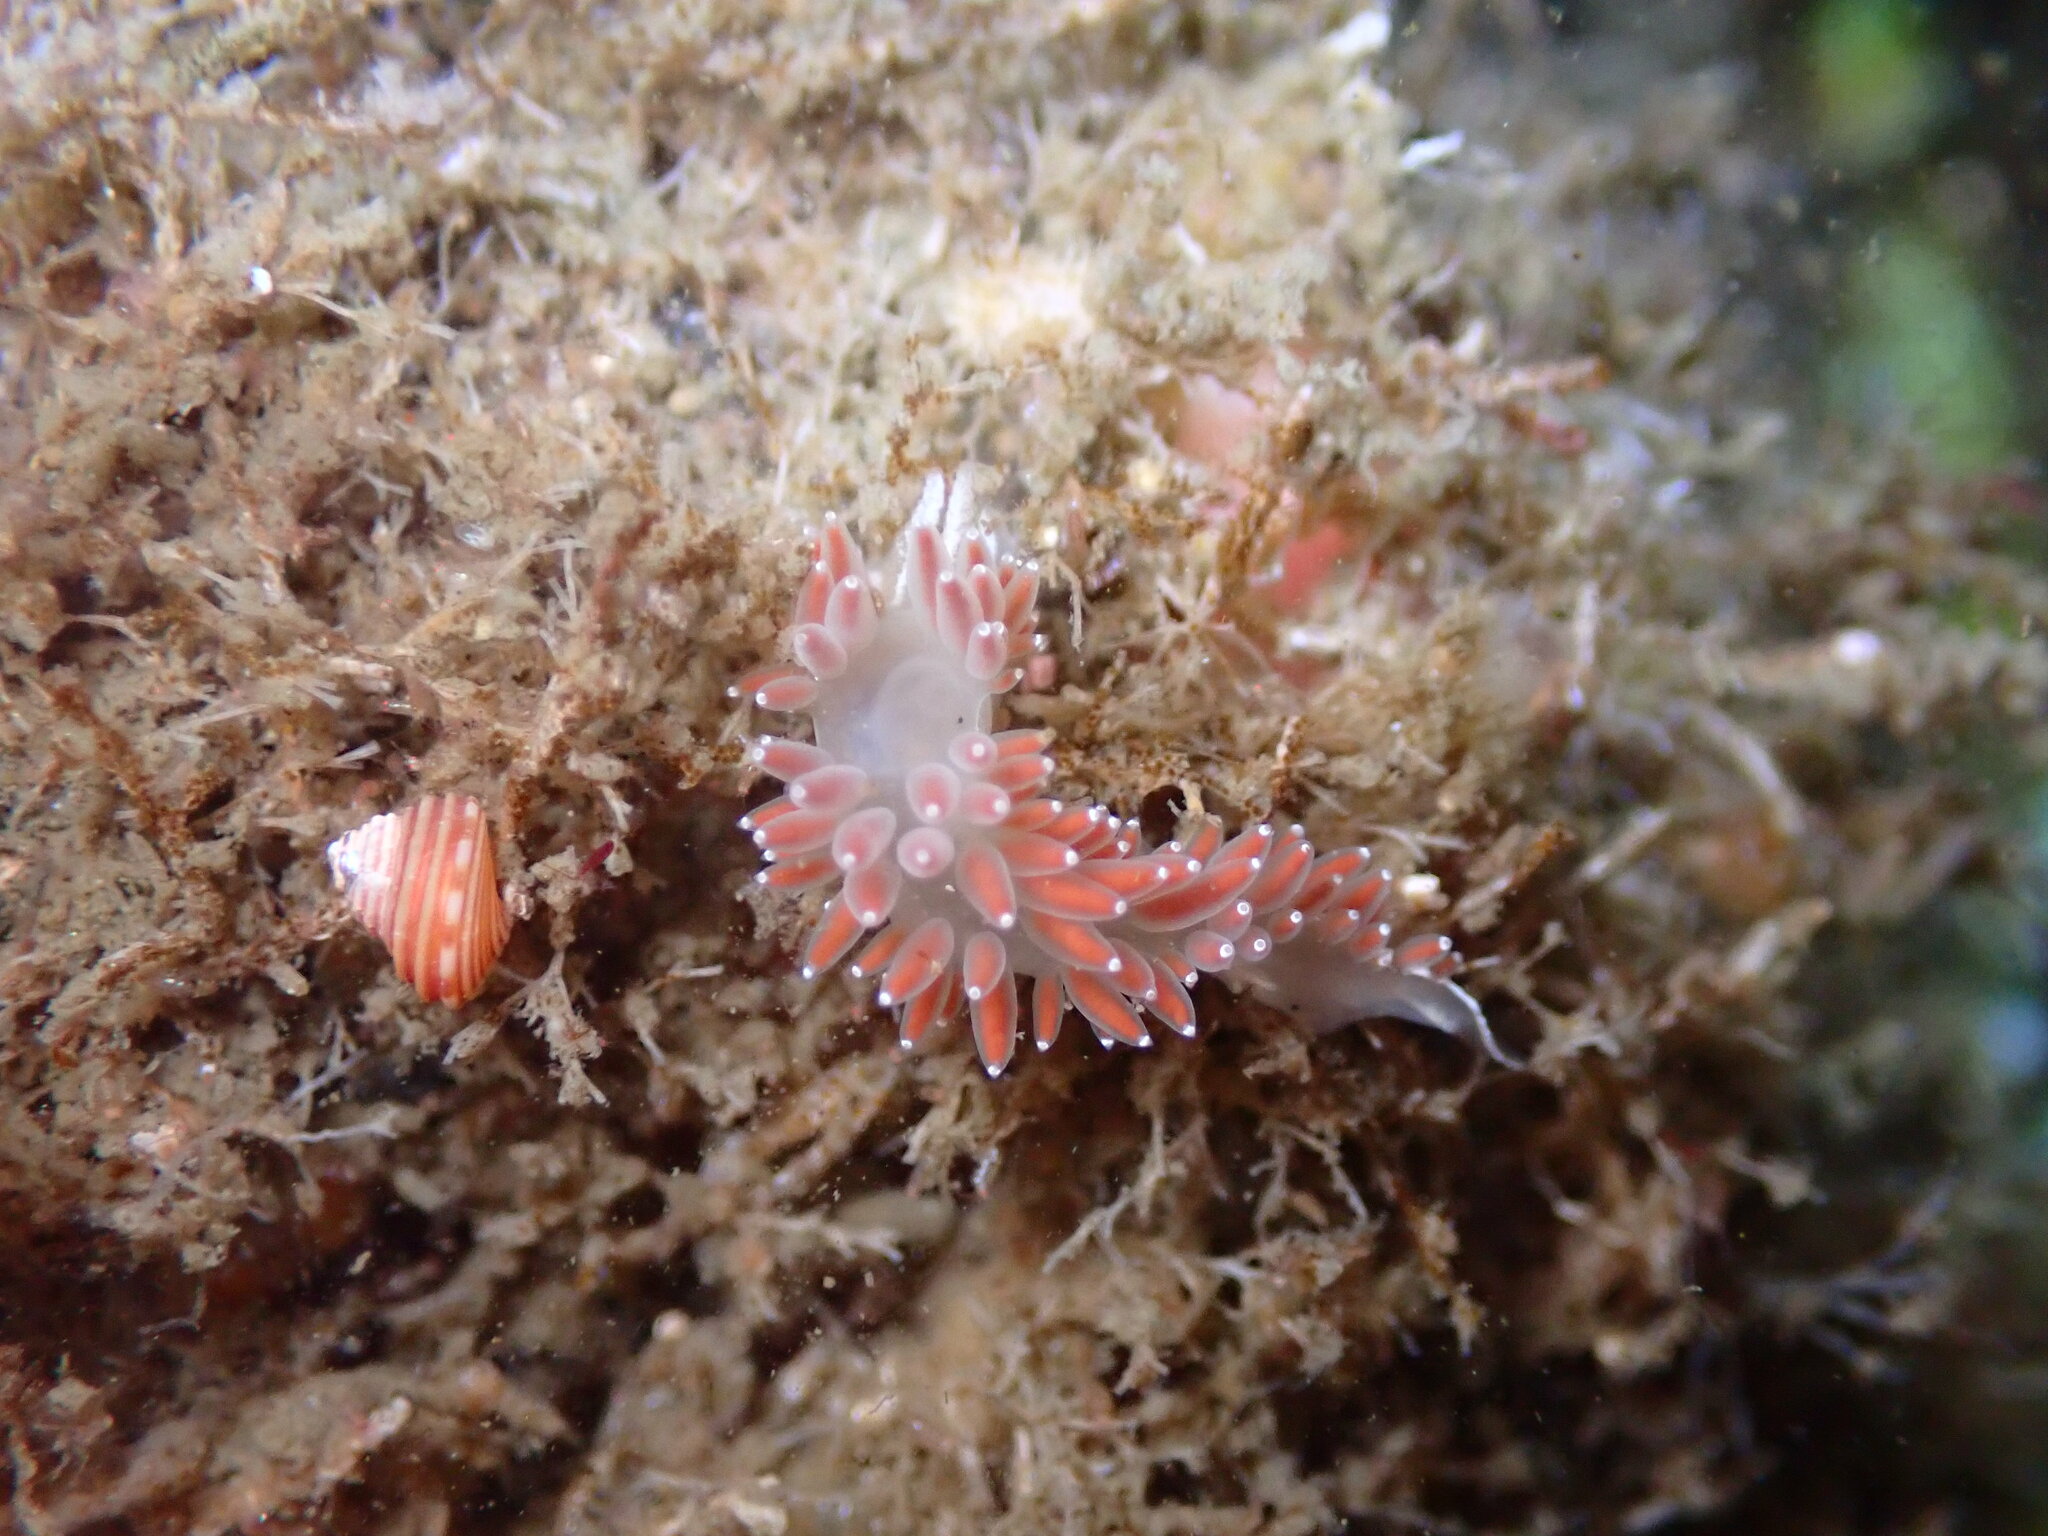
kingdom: Animalia
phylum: Mollusca
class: Gastropoda
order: Nudibranchia
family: Coryphellidae
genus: Coryphella
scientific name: Coryphella verrucosa
